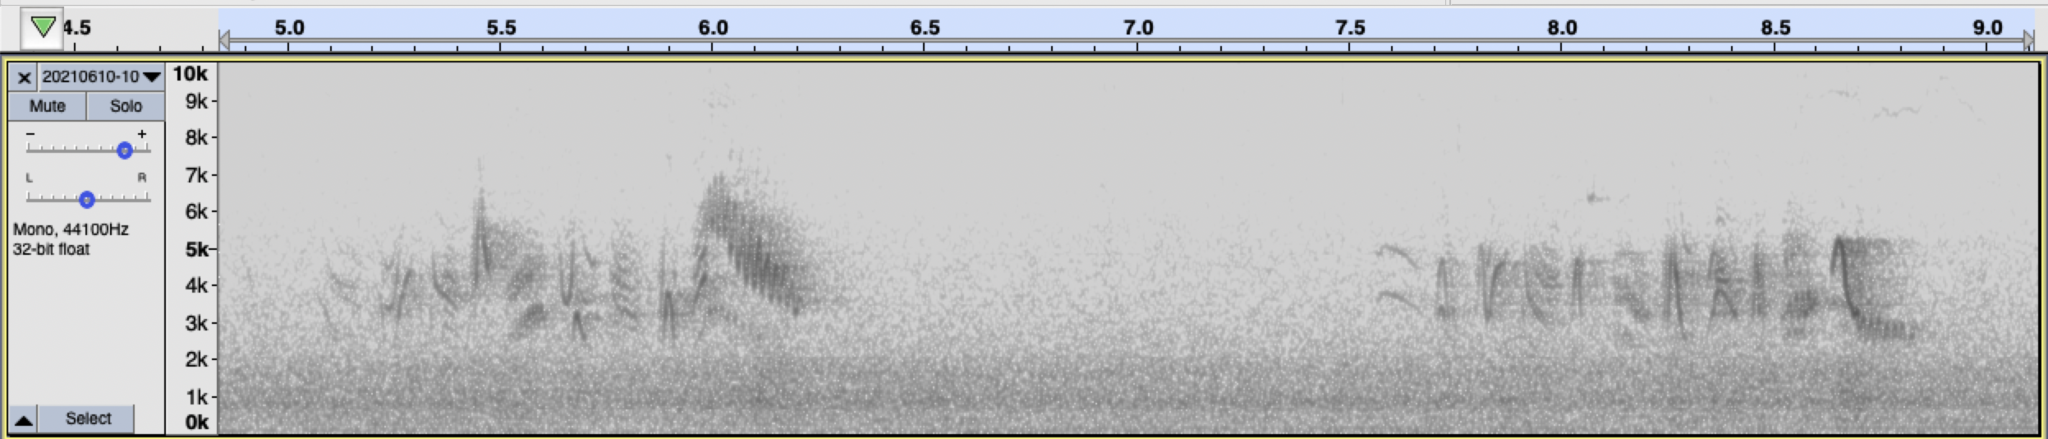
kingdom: Animalia
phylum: Chordata
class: Aves
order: Passeriformes
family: Vireonidae
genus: Vireo
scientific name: Vireo bellii
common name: Bell's vireo
